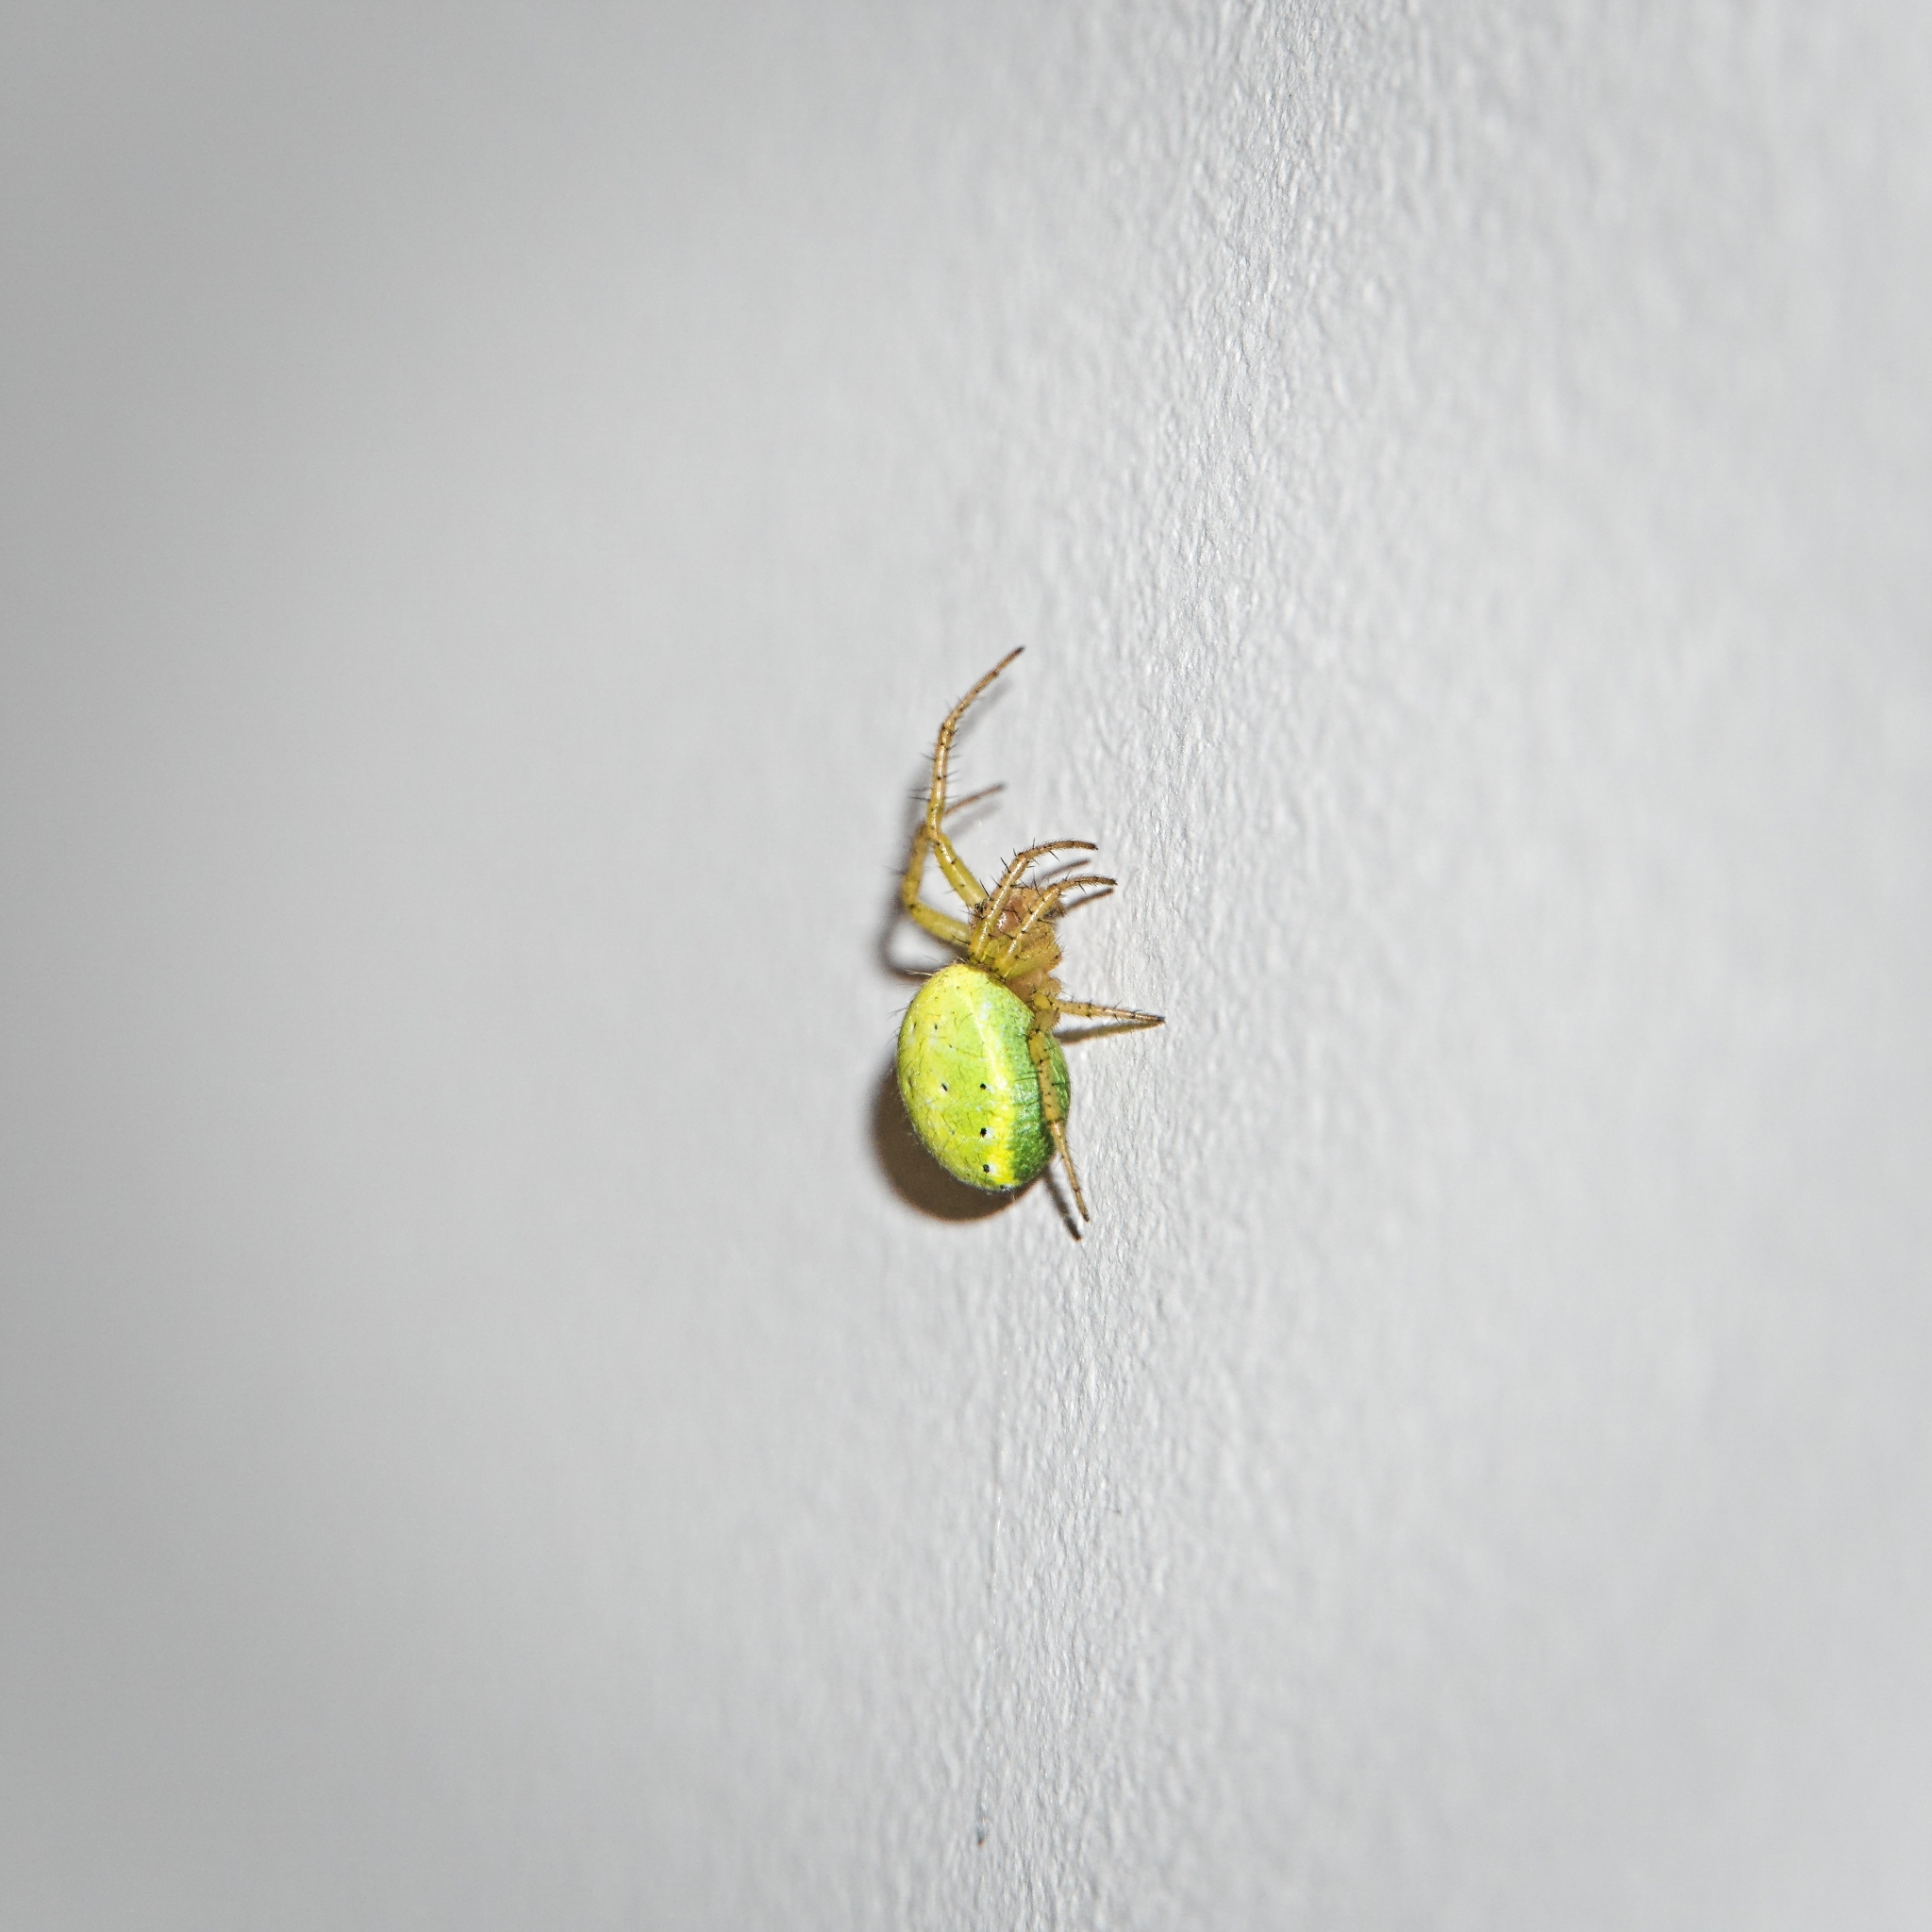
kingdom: Animalia
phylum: Arthropoda
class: Arachnida
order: Araneae
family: Araneidae
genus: Araniella
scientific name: Araniella
